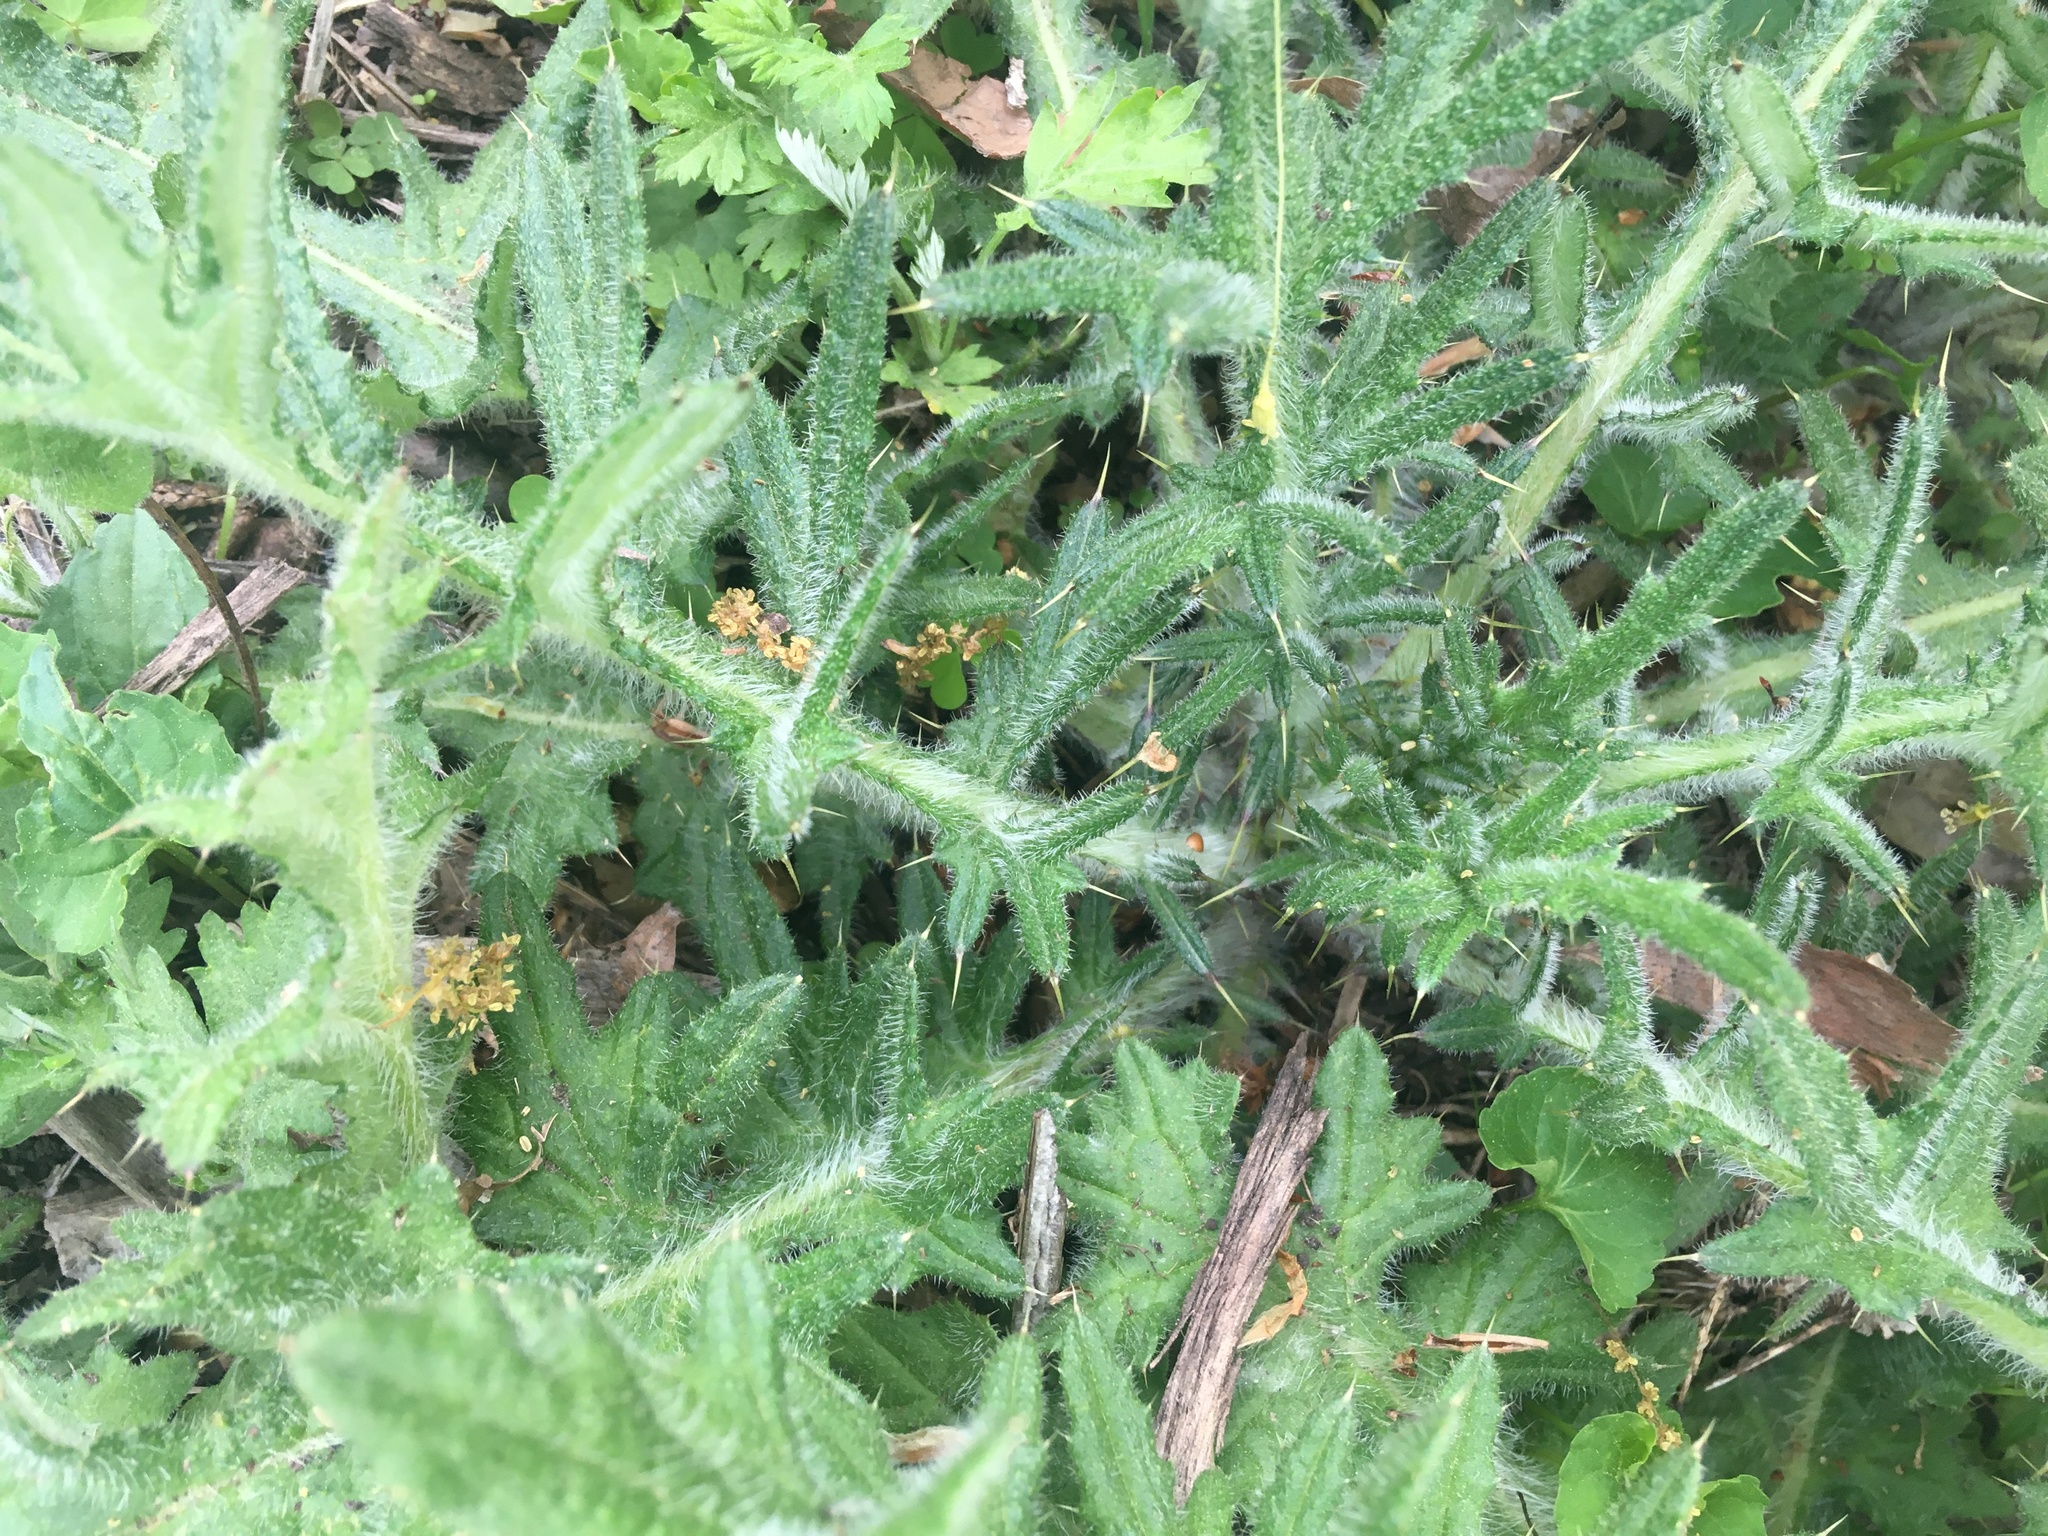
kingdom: Plantae
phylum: Tracheophyta
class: Magnoliopsida
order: Asterales
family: Asteraceae
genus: Cirsium
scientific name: Cirsium vulgare
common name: Bull thistle
